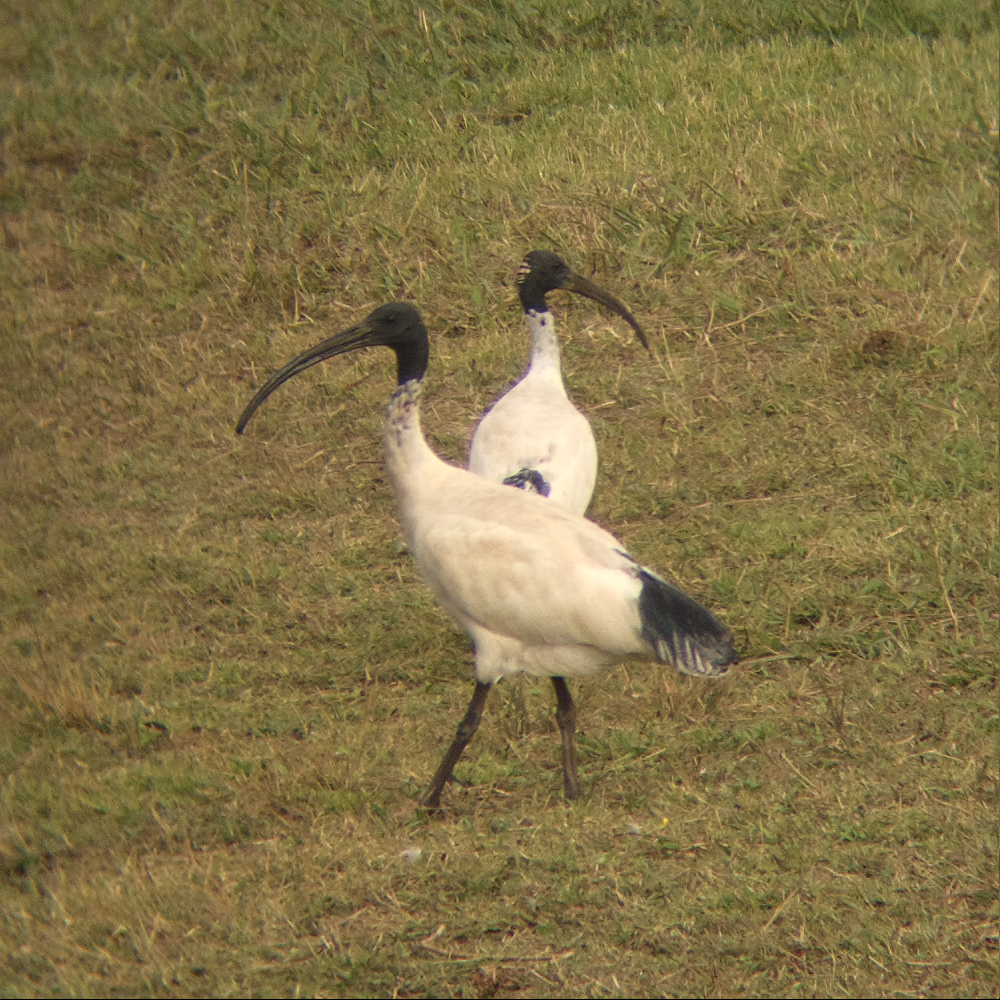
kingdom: Animalia
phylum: Chordata
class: Aves
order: Pelecaniformes
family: Threskiornithidae
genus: Threskiornis
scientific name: Threskiornis molucca
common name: Australian white ibis
